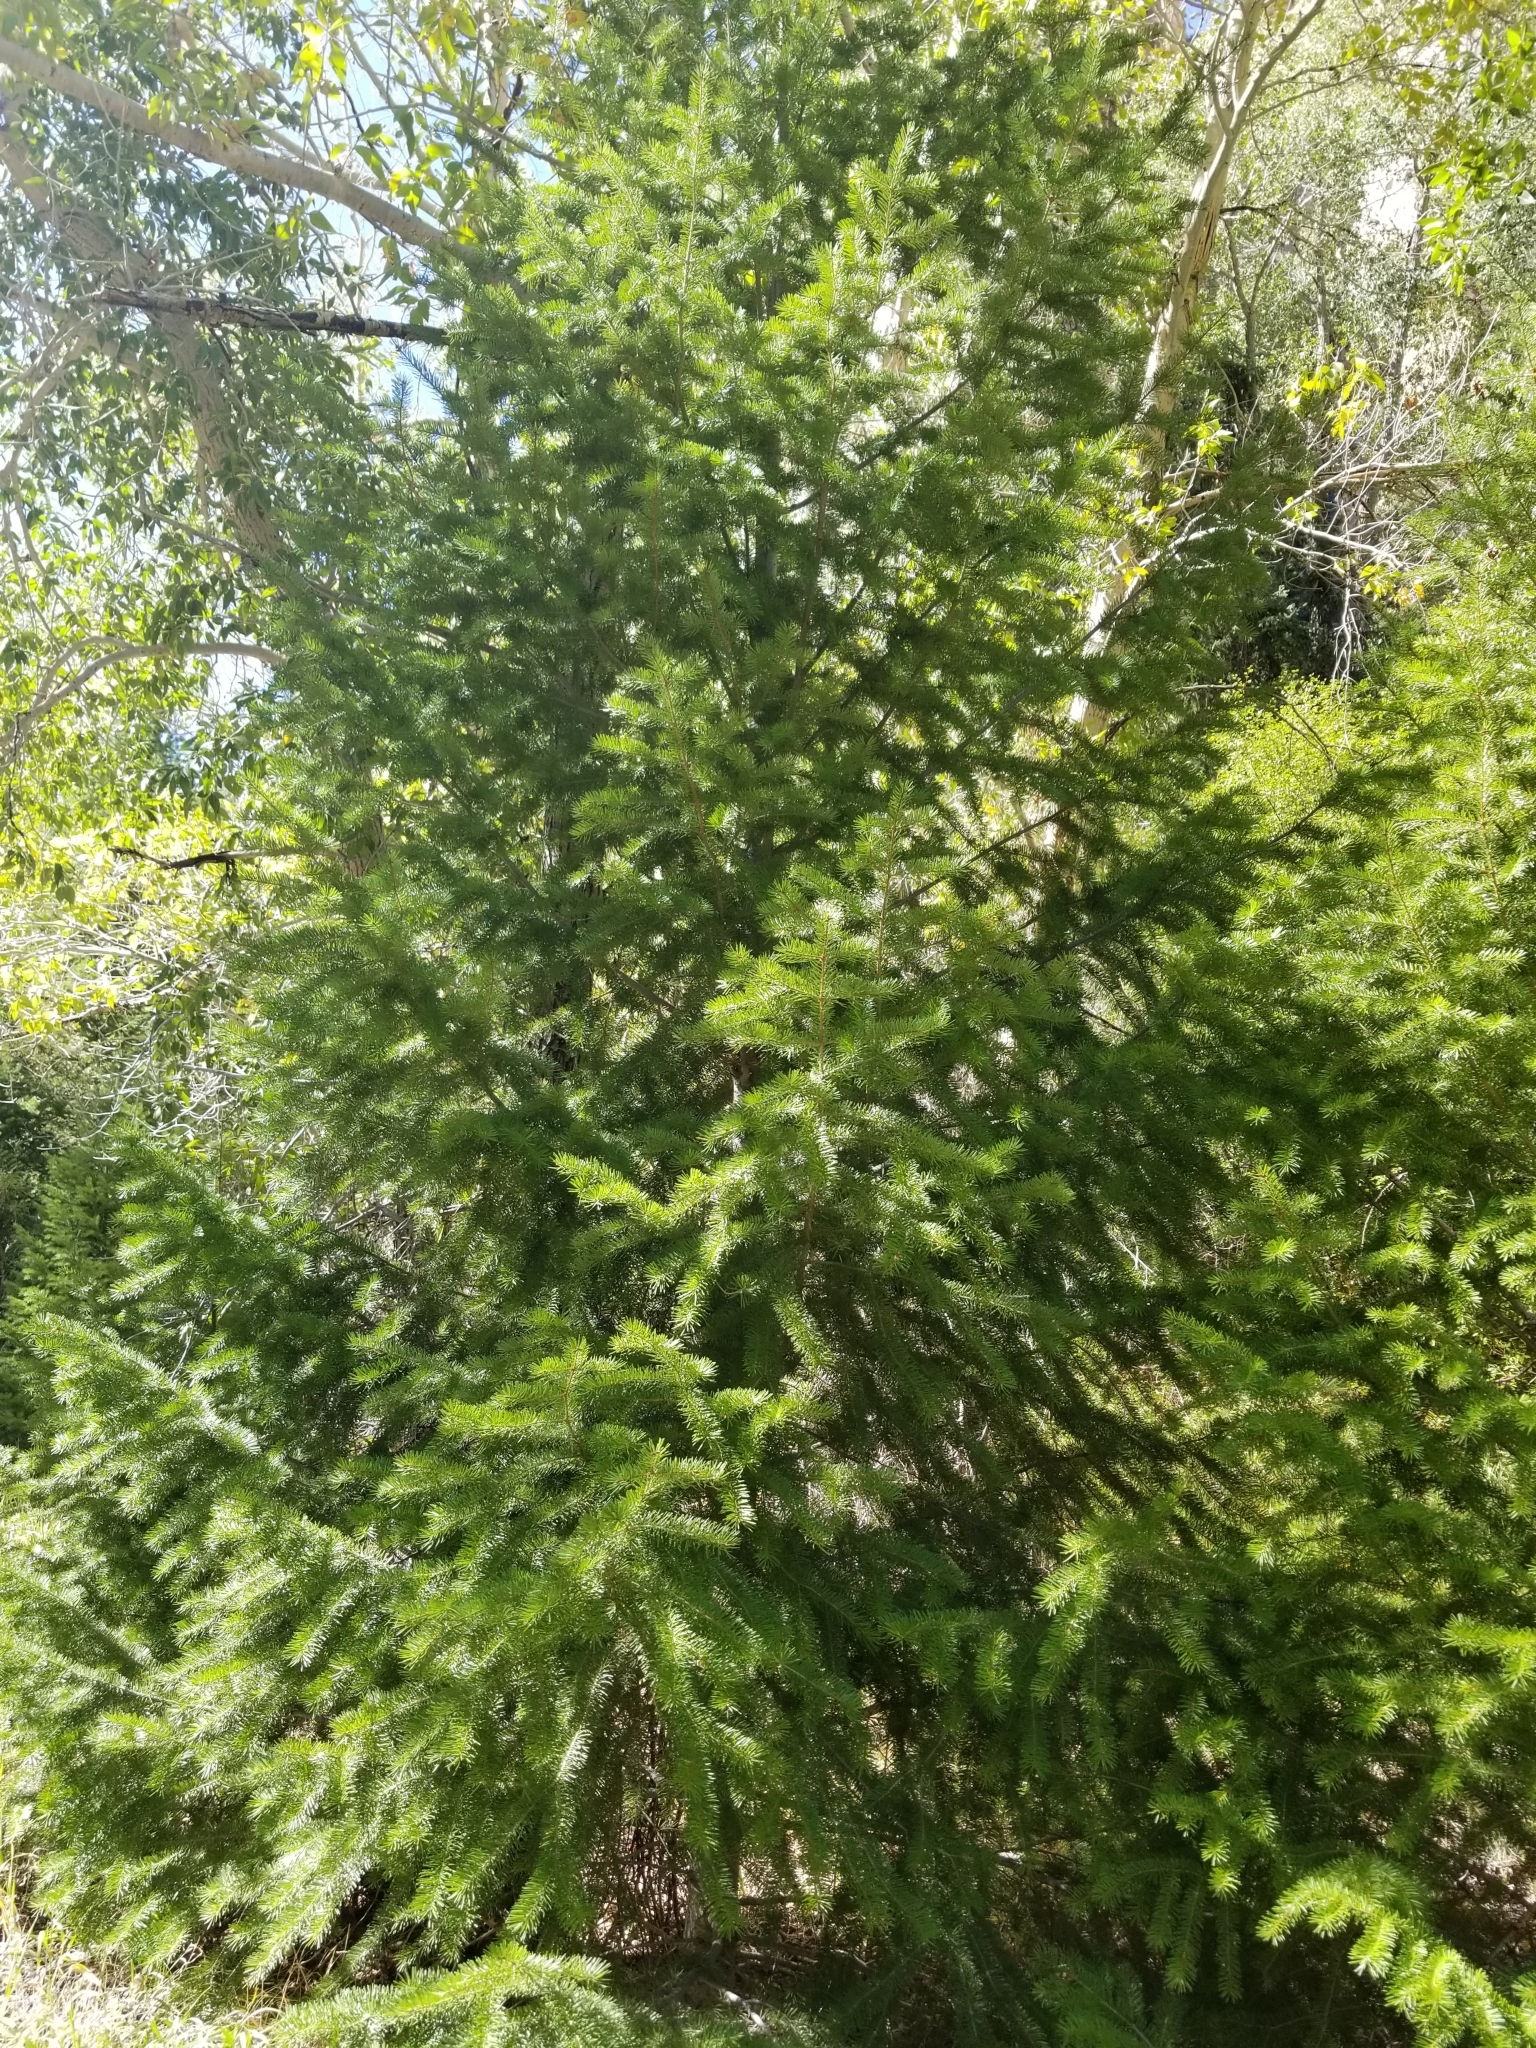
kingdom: Plantae
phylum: Tracheophyta
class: Pinopsida
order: Pinales
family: Pinaceae
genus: Pseudotsuga
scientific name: Pseudotsuga menziesii
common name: Douglas fir
